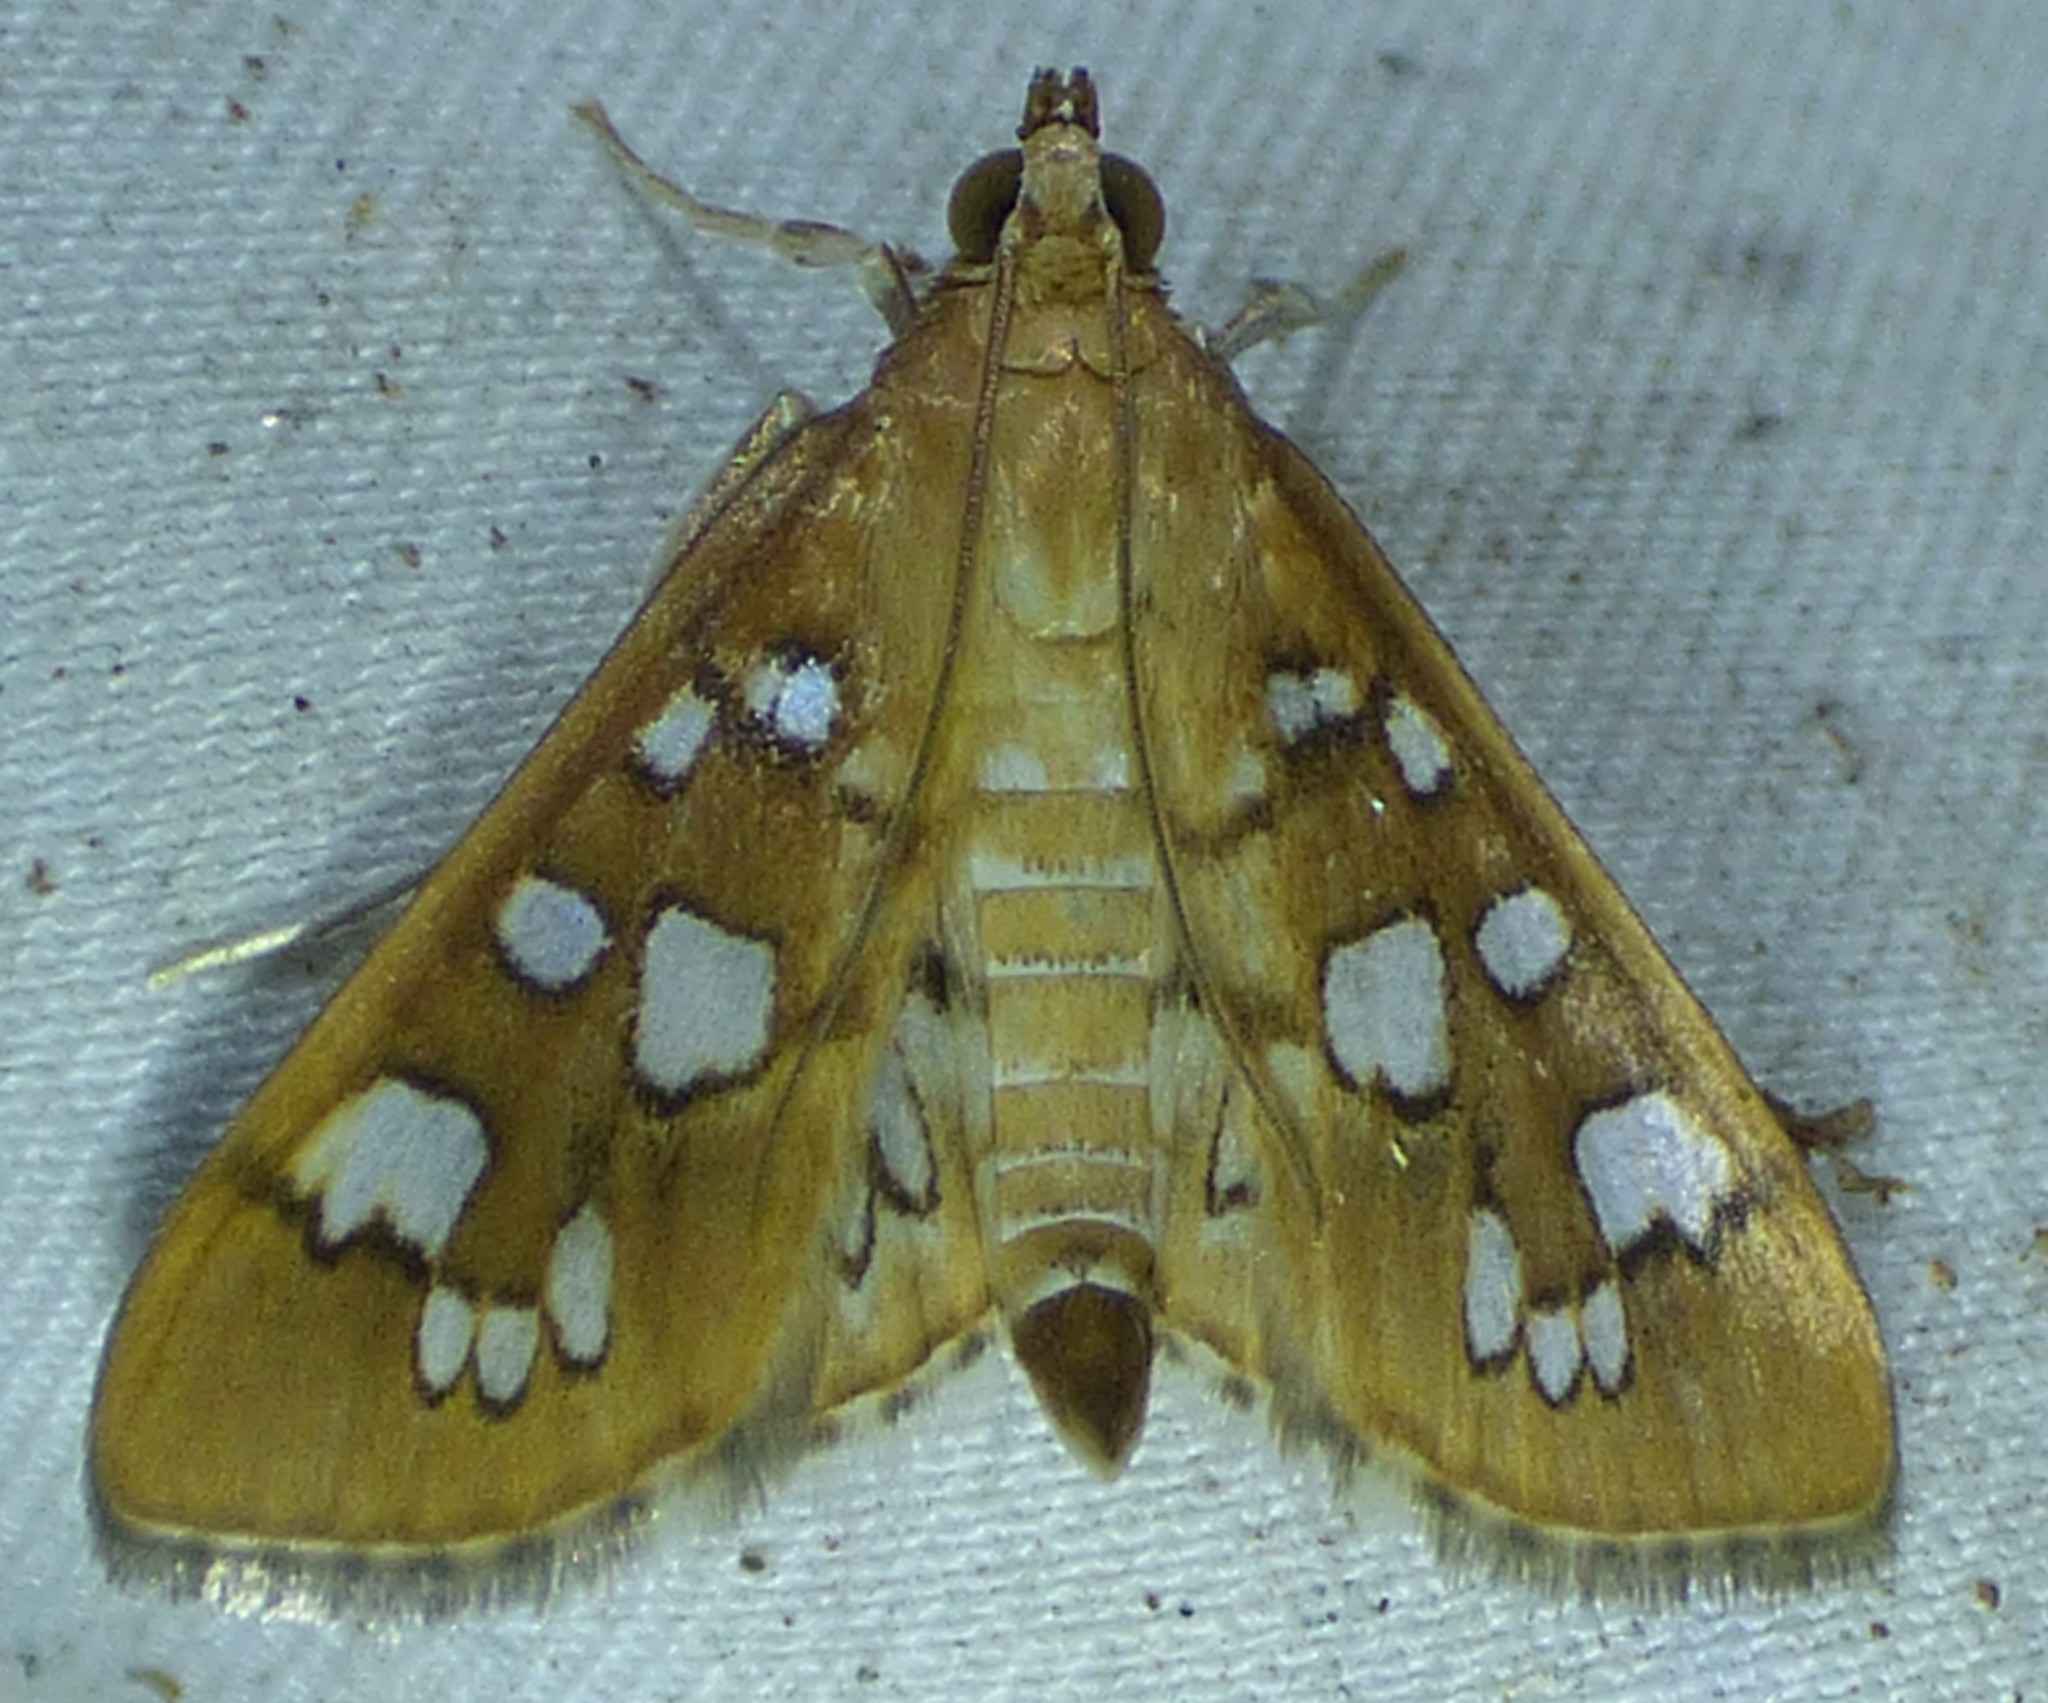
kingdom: Animalia
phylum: Arthropoda
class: Insecta
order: Lepidoptera
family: Crambidae
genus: Samea
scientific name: Samea baccatalis
